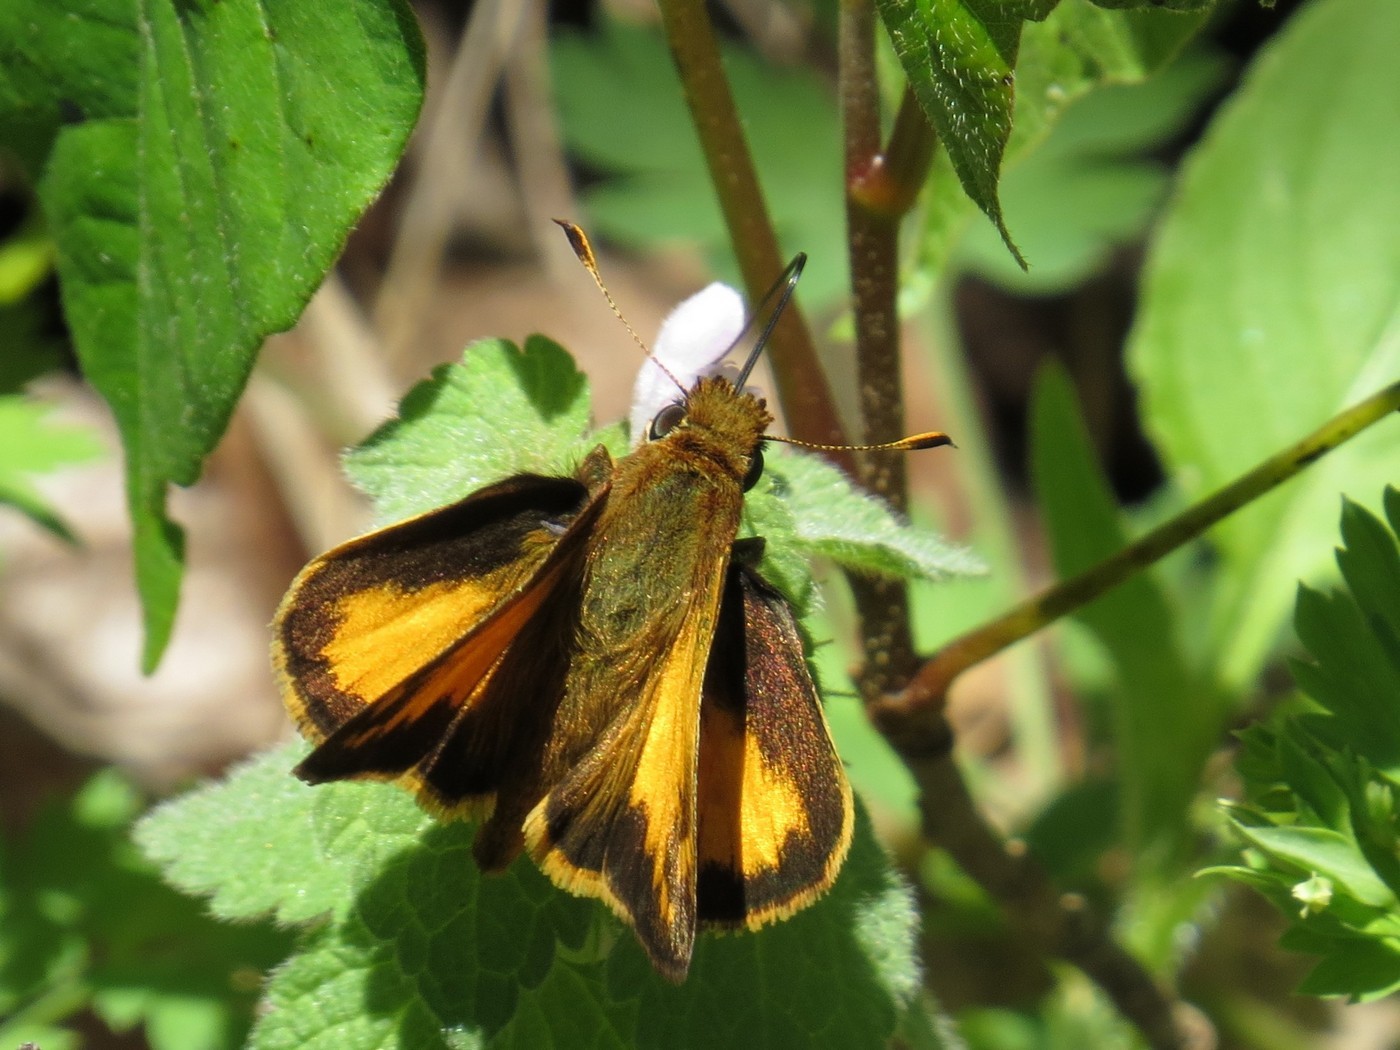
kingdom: Animalia
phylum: Arthropoda
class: Insecta
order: Lepidoptera
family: Hesperiidae
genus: Lon
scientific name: Lon zabulon
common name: Zabulon skipper
